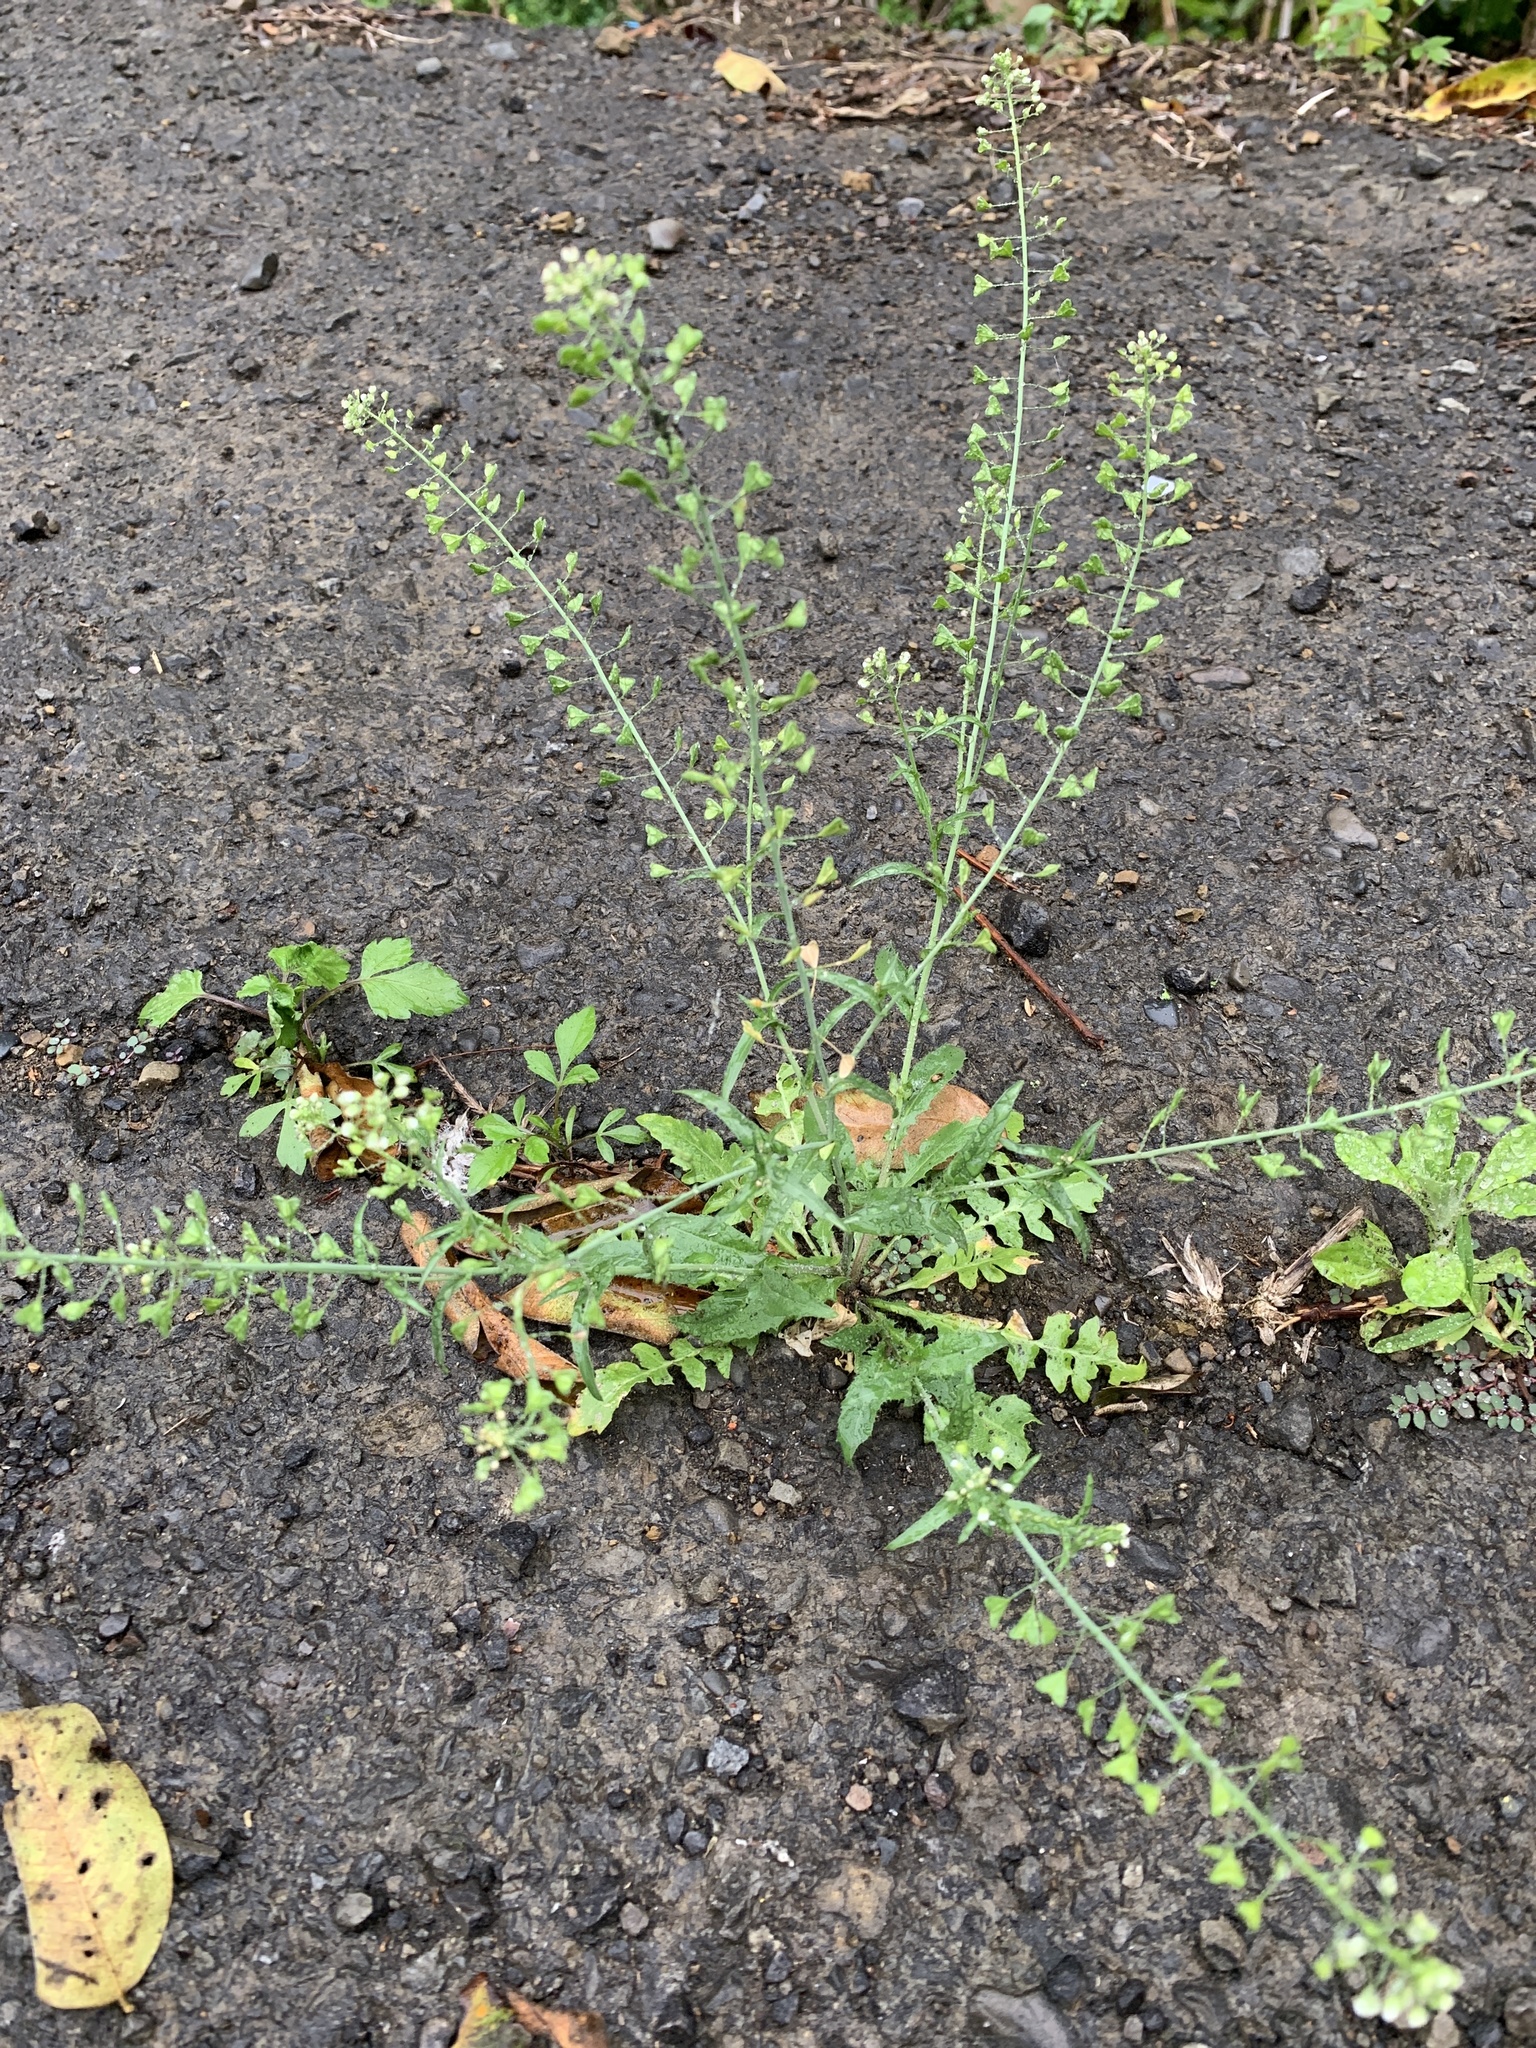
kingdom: Plantae
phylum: Tracheophyta
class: Magnoliopsida
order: Brassicales
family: Brassicaceae
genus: Capsella
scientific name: Capsella bursa-pastoris
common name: Shepherd's purse
